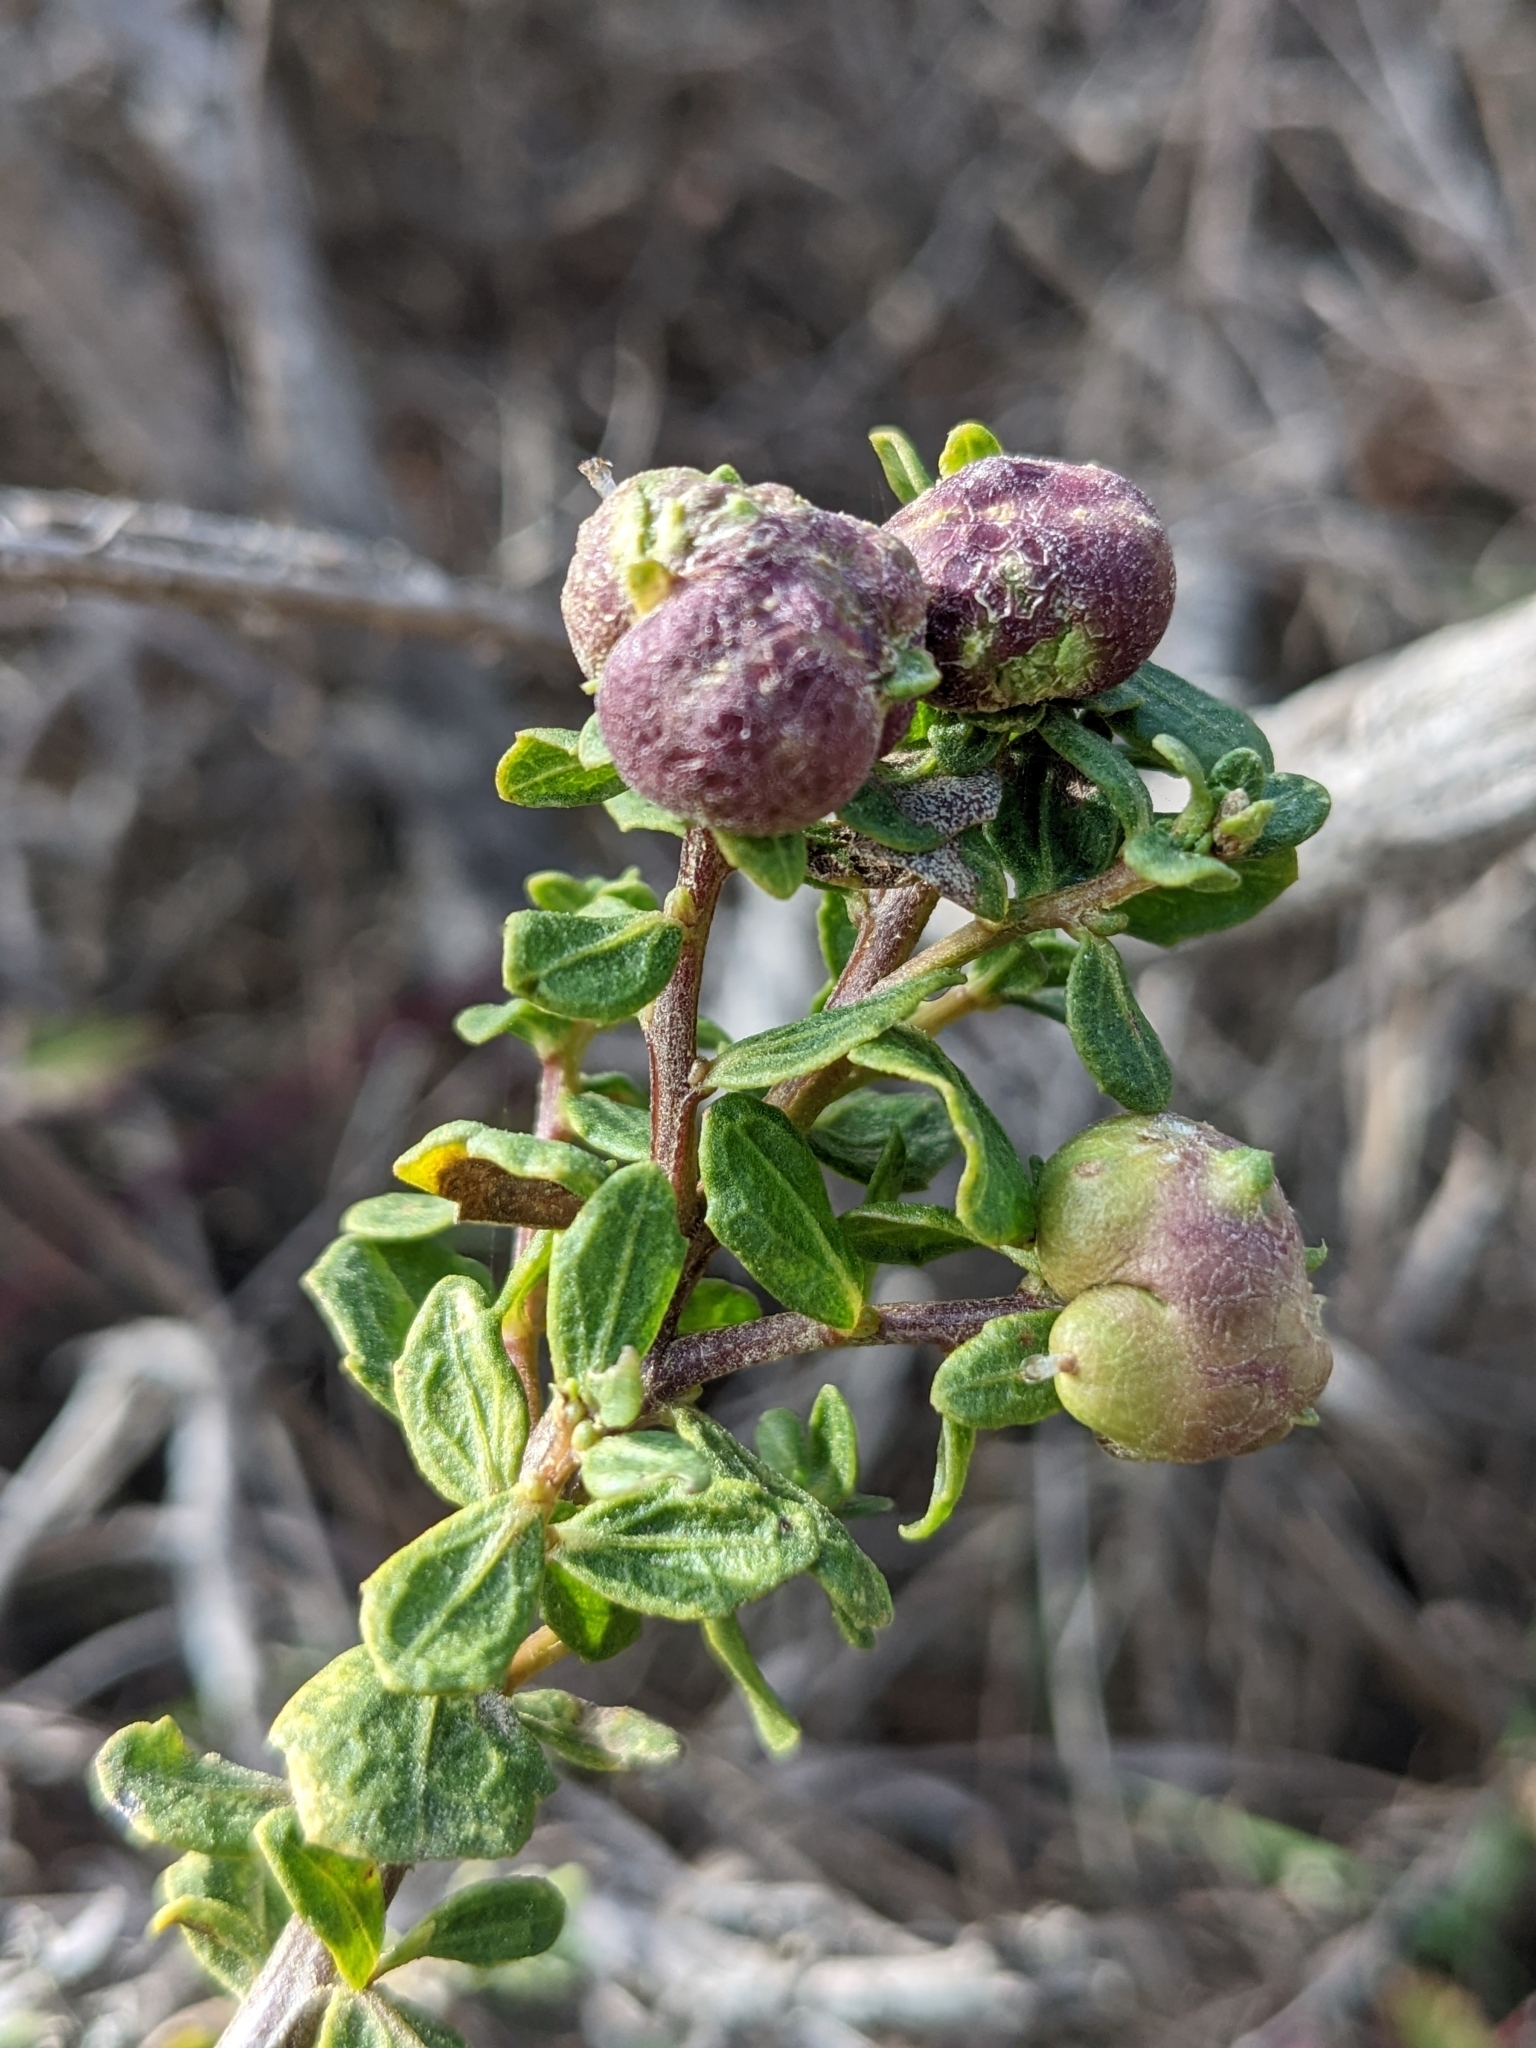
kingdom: Animalia
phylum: Arthropoda
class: Insecta
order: Diptera
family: Cecidomyiidae
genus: Rhopalomyia
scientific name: Rhopalomyia californica
